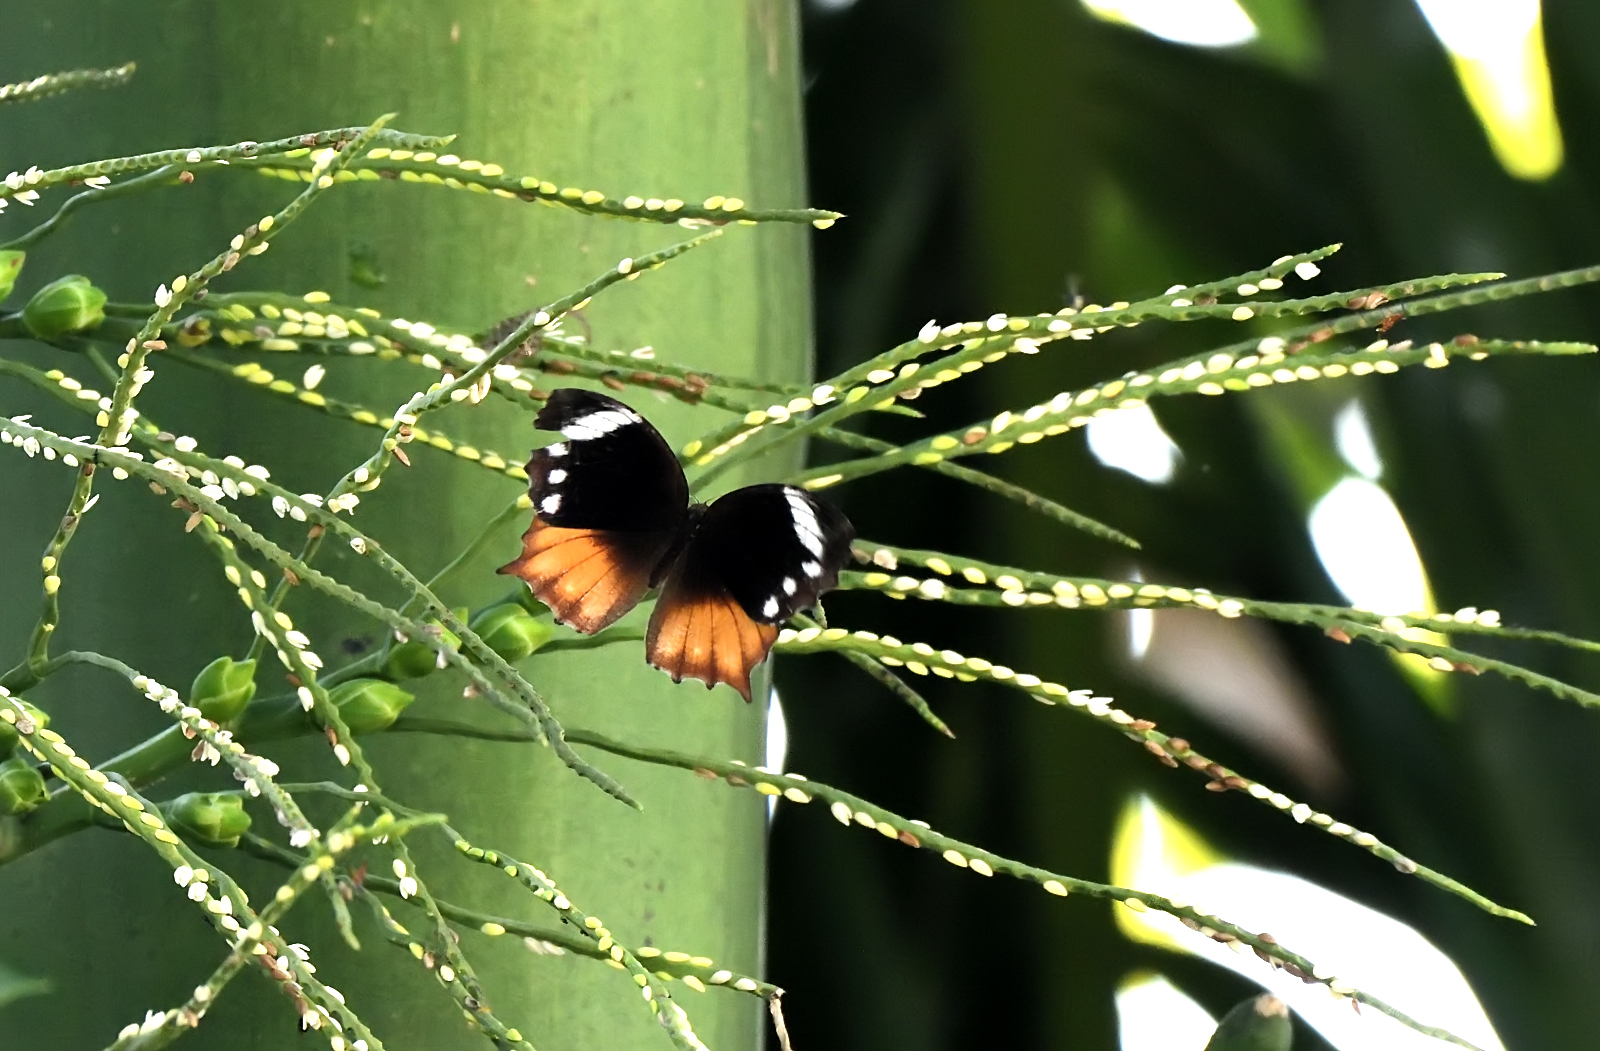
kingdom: Animalia
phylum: Arthropoda
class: Insecta
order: Lepidoptera
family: Nymphalidae
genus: Elymnias
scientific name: Elymnias caudata
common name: Tailed palmfly
